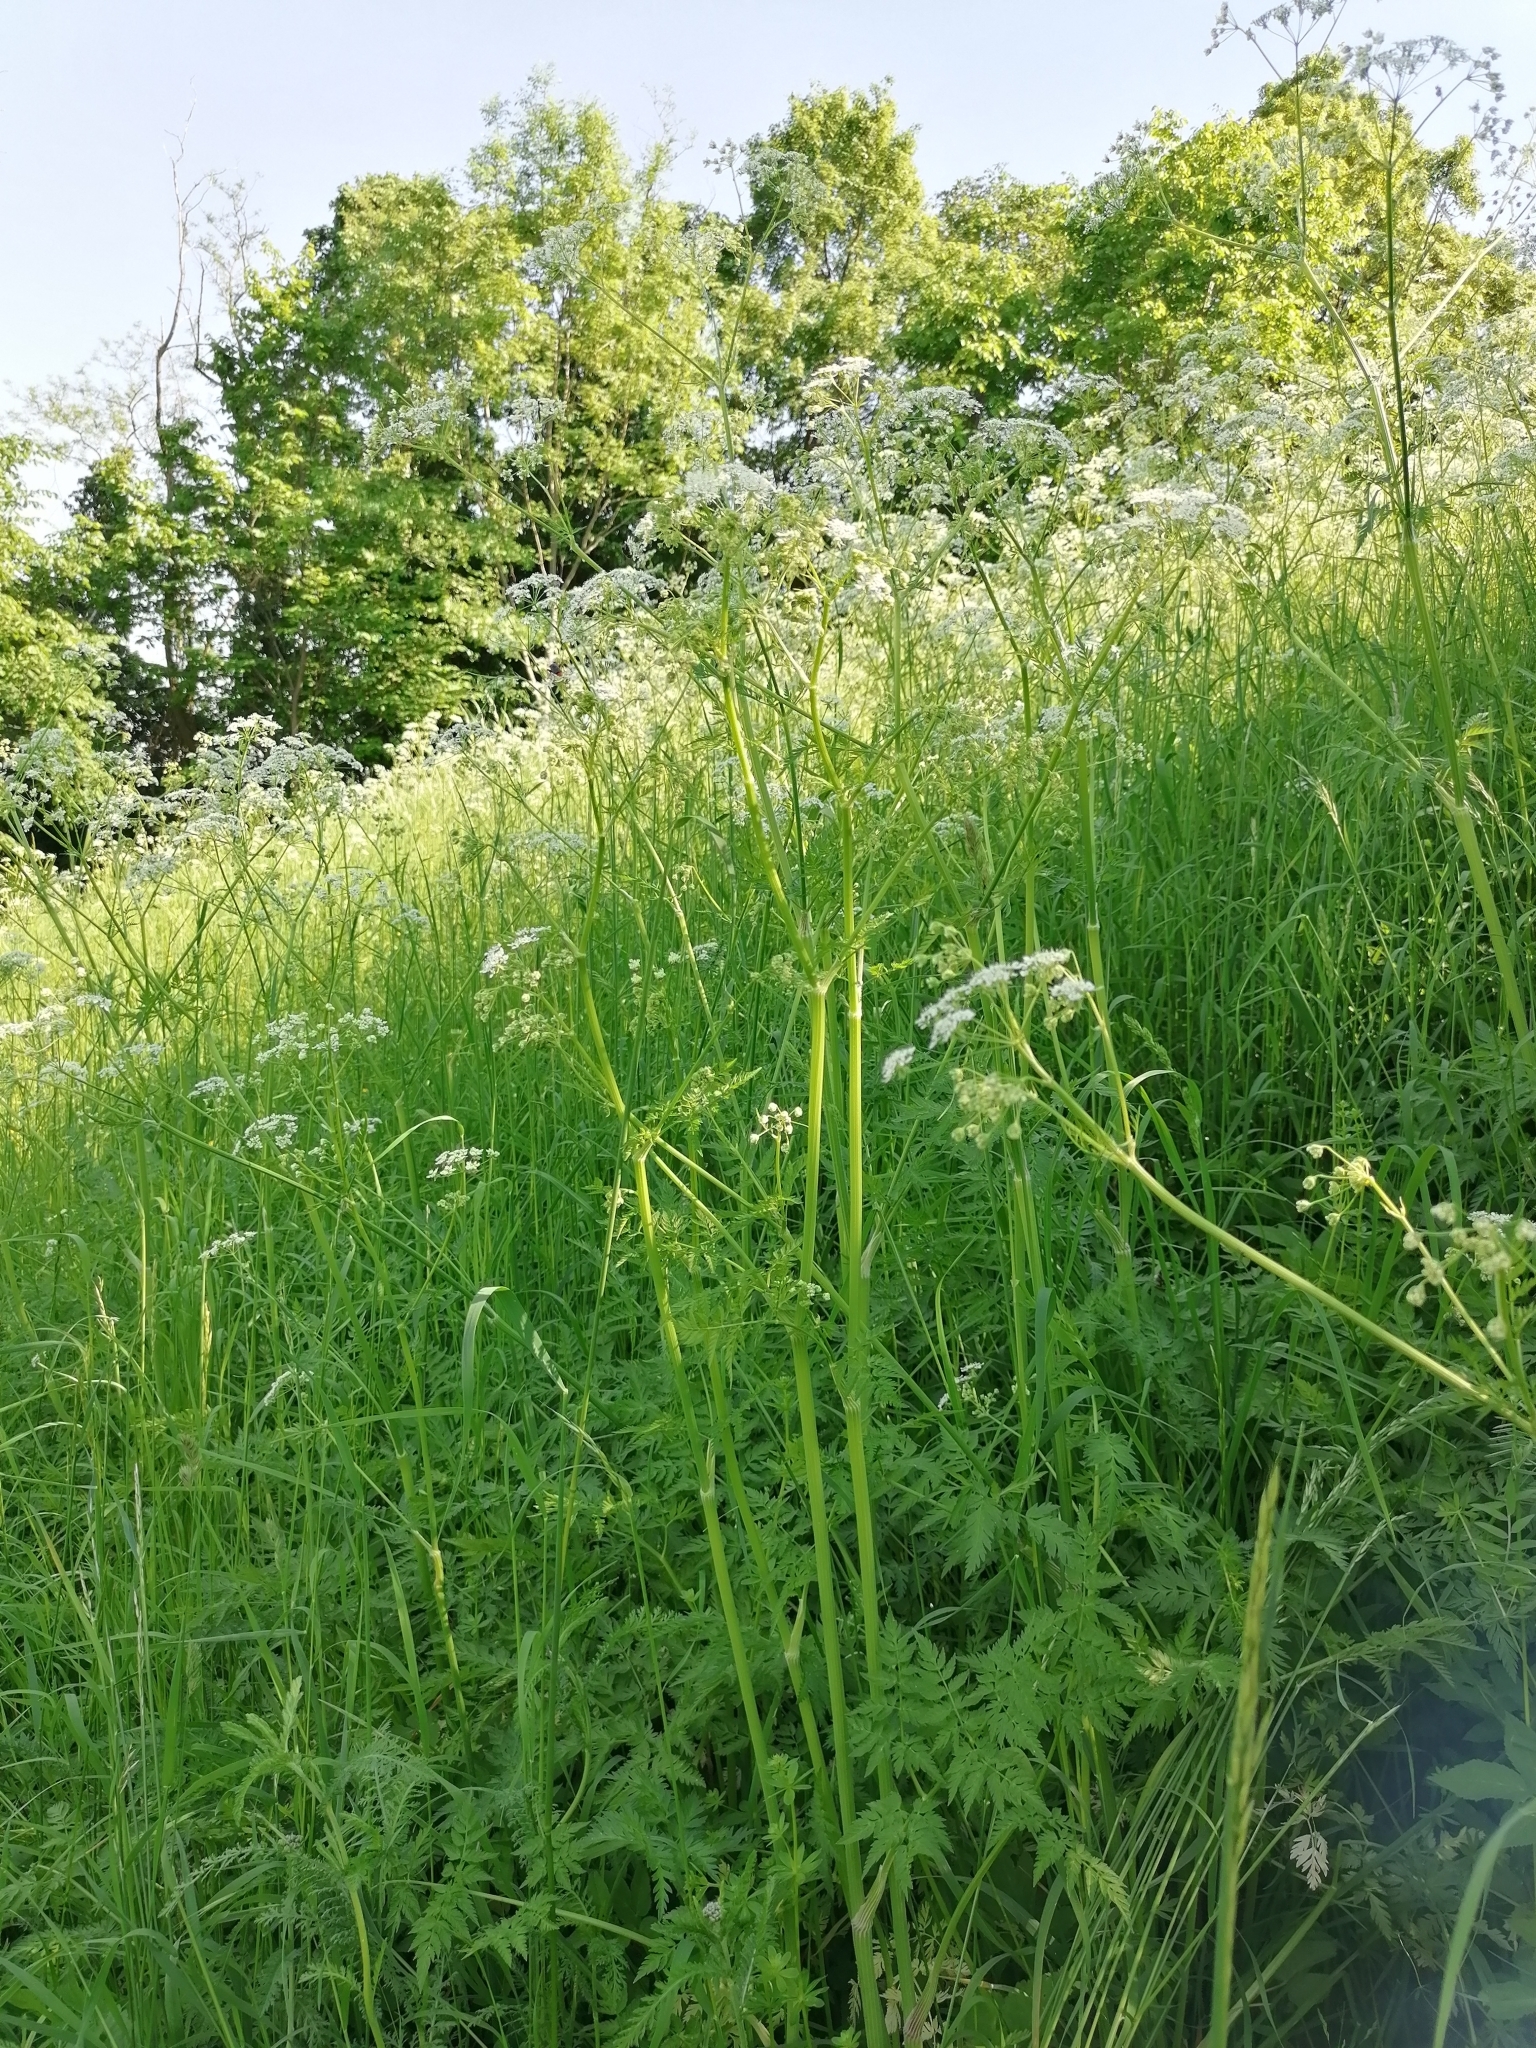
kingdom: Plantae
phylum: Tracheophyta
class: Magnoliopsida
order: Apiales
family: Apiaceae
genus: Anthriscus
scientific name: Anthriscus sylvestris
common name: Cow parsley
